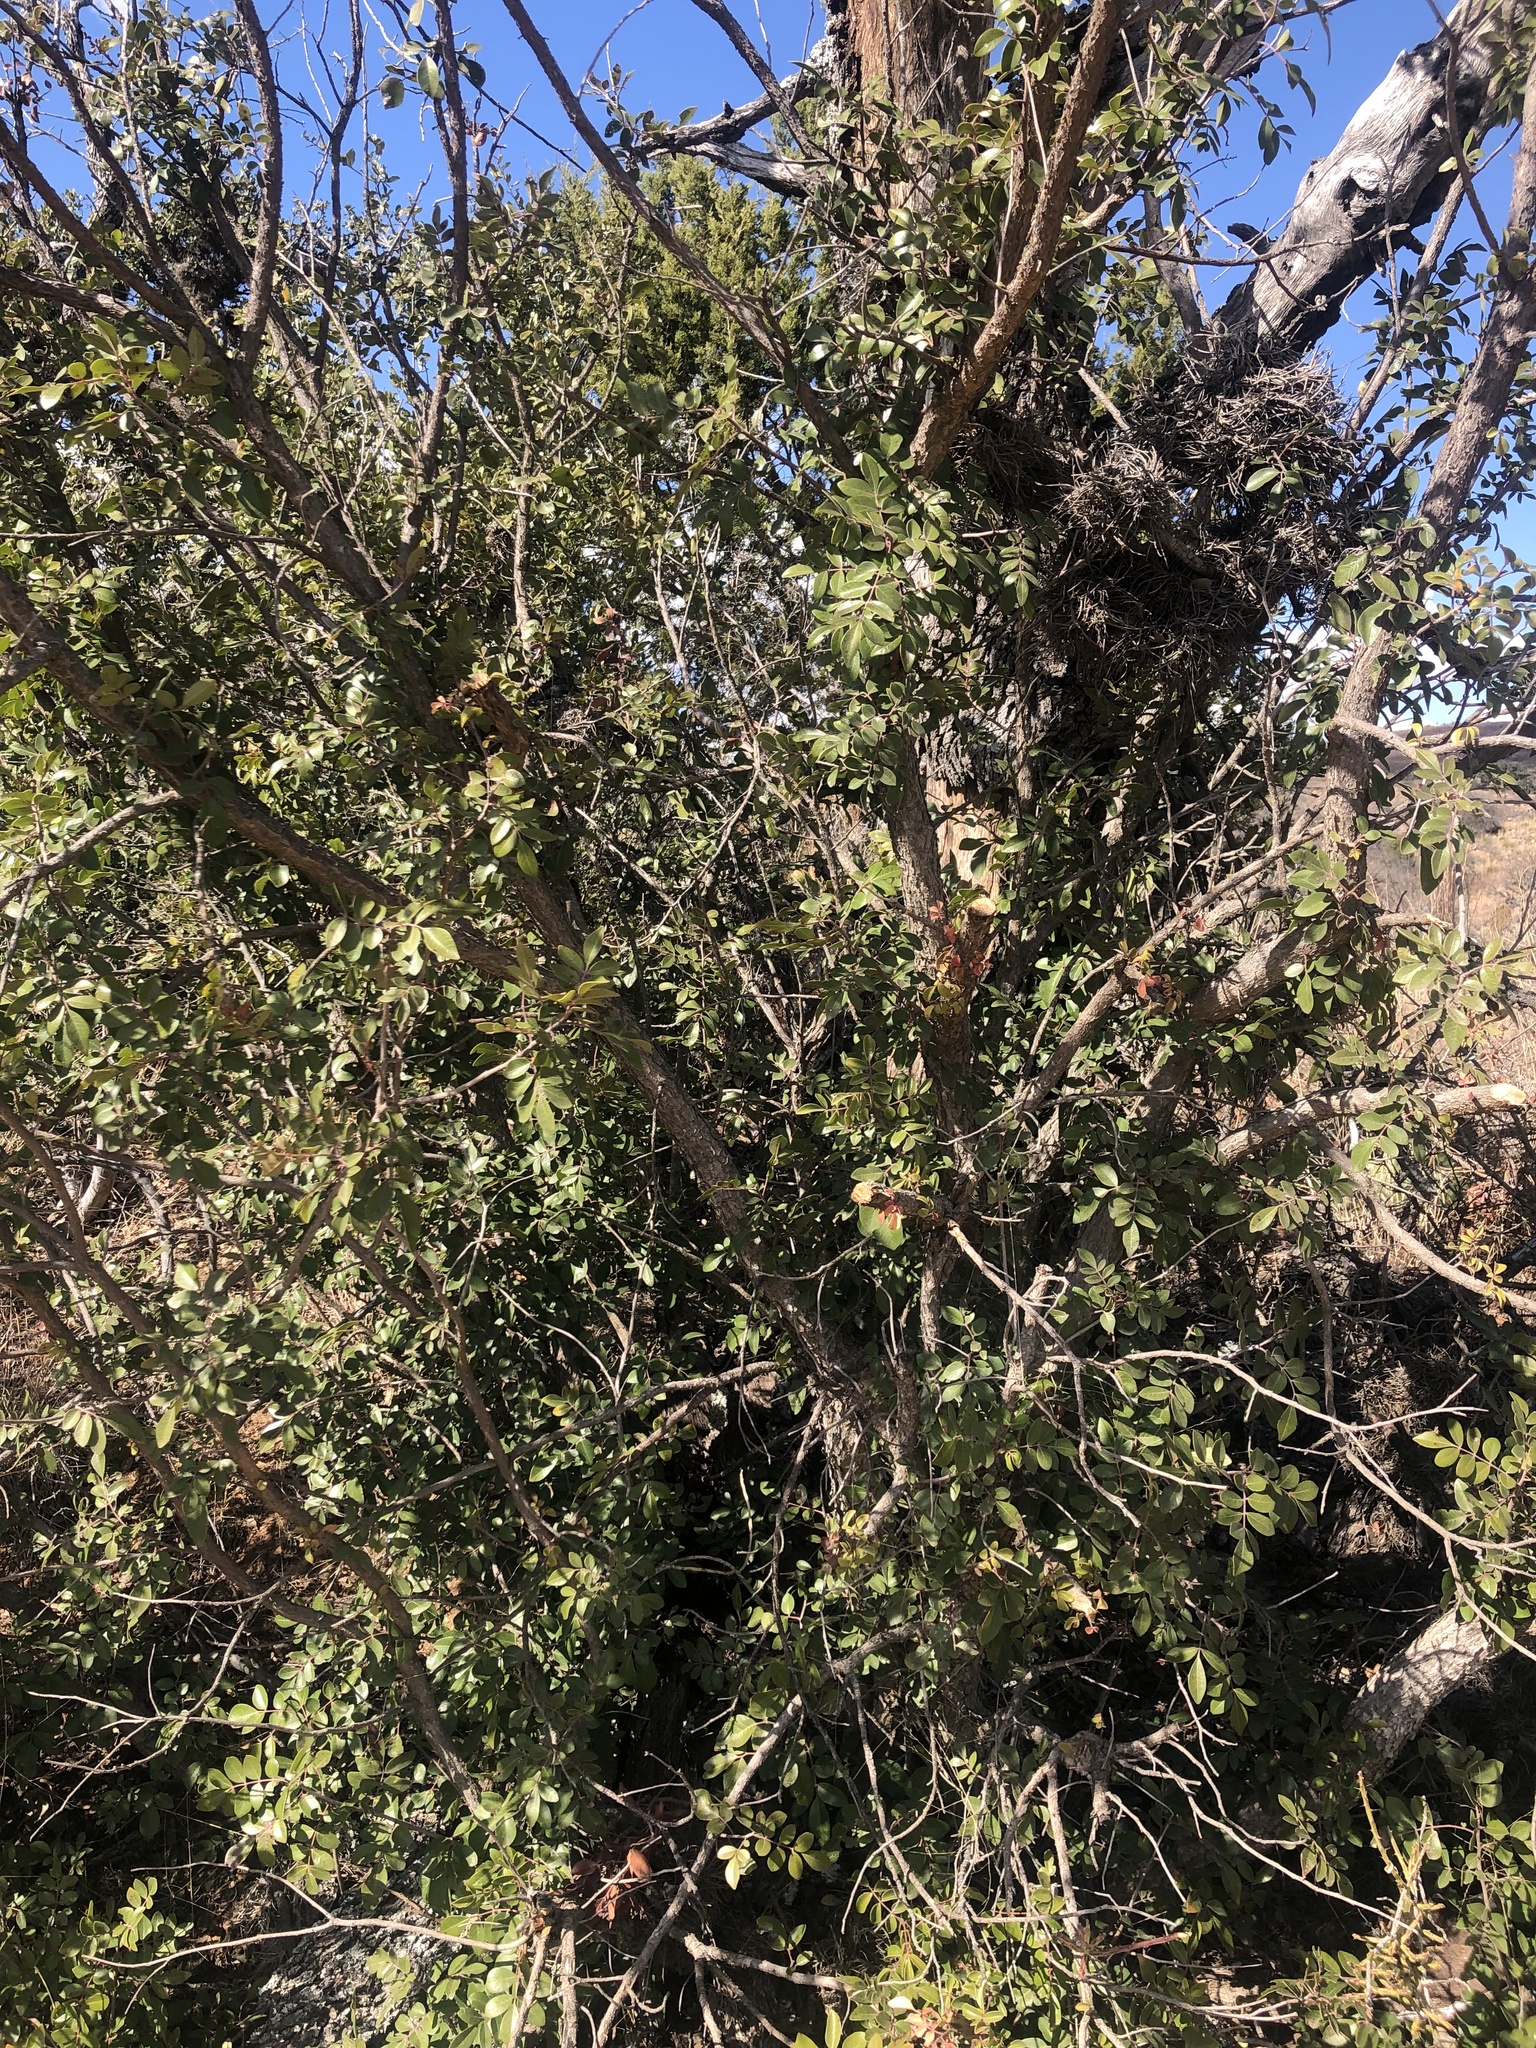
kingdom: Plantae
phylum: Tracheophyta
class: Magnoliopsida
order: Sapindales
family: Anacardiaceae
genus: Rhus
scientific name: Rhus virens
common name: Evergreen sumac
